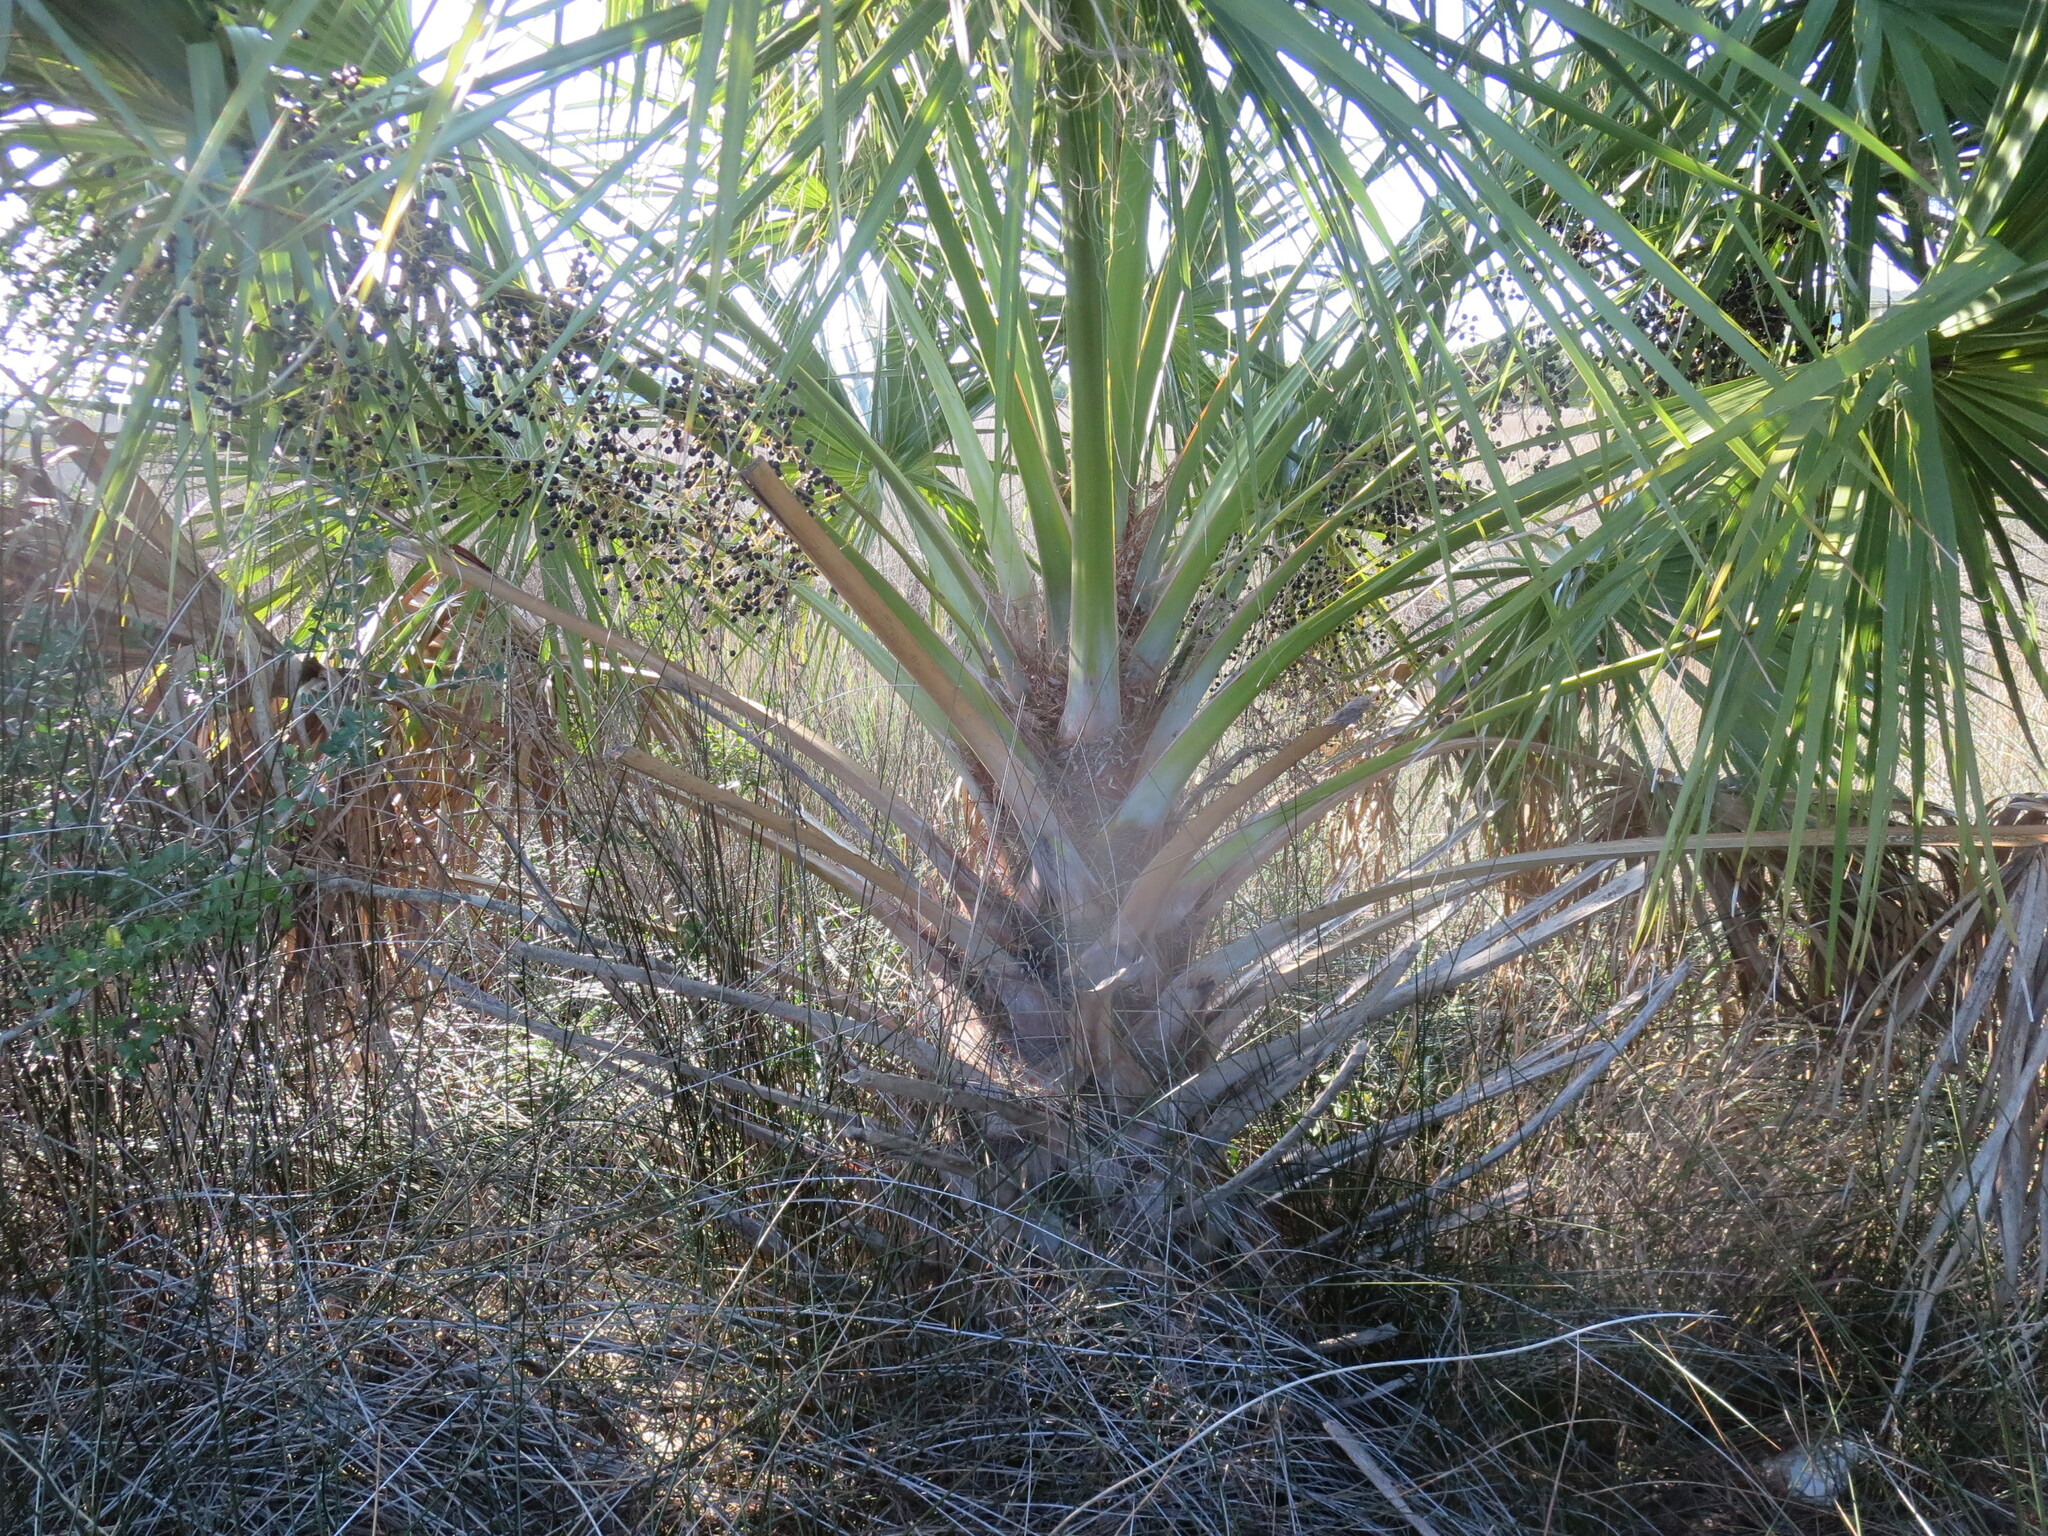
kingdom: Plantae
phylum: Tracheophyta
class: Liliopsida
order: Arecales
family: Arecaceae
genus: Sabal
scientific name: Sabal palmetto
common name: Blue palmetto
